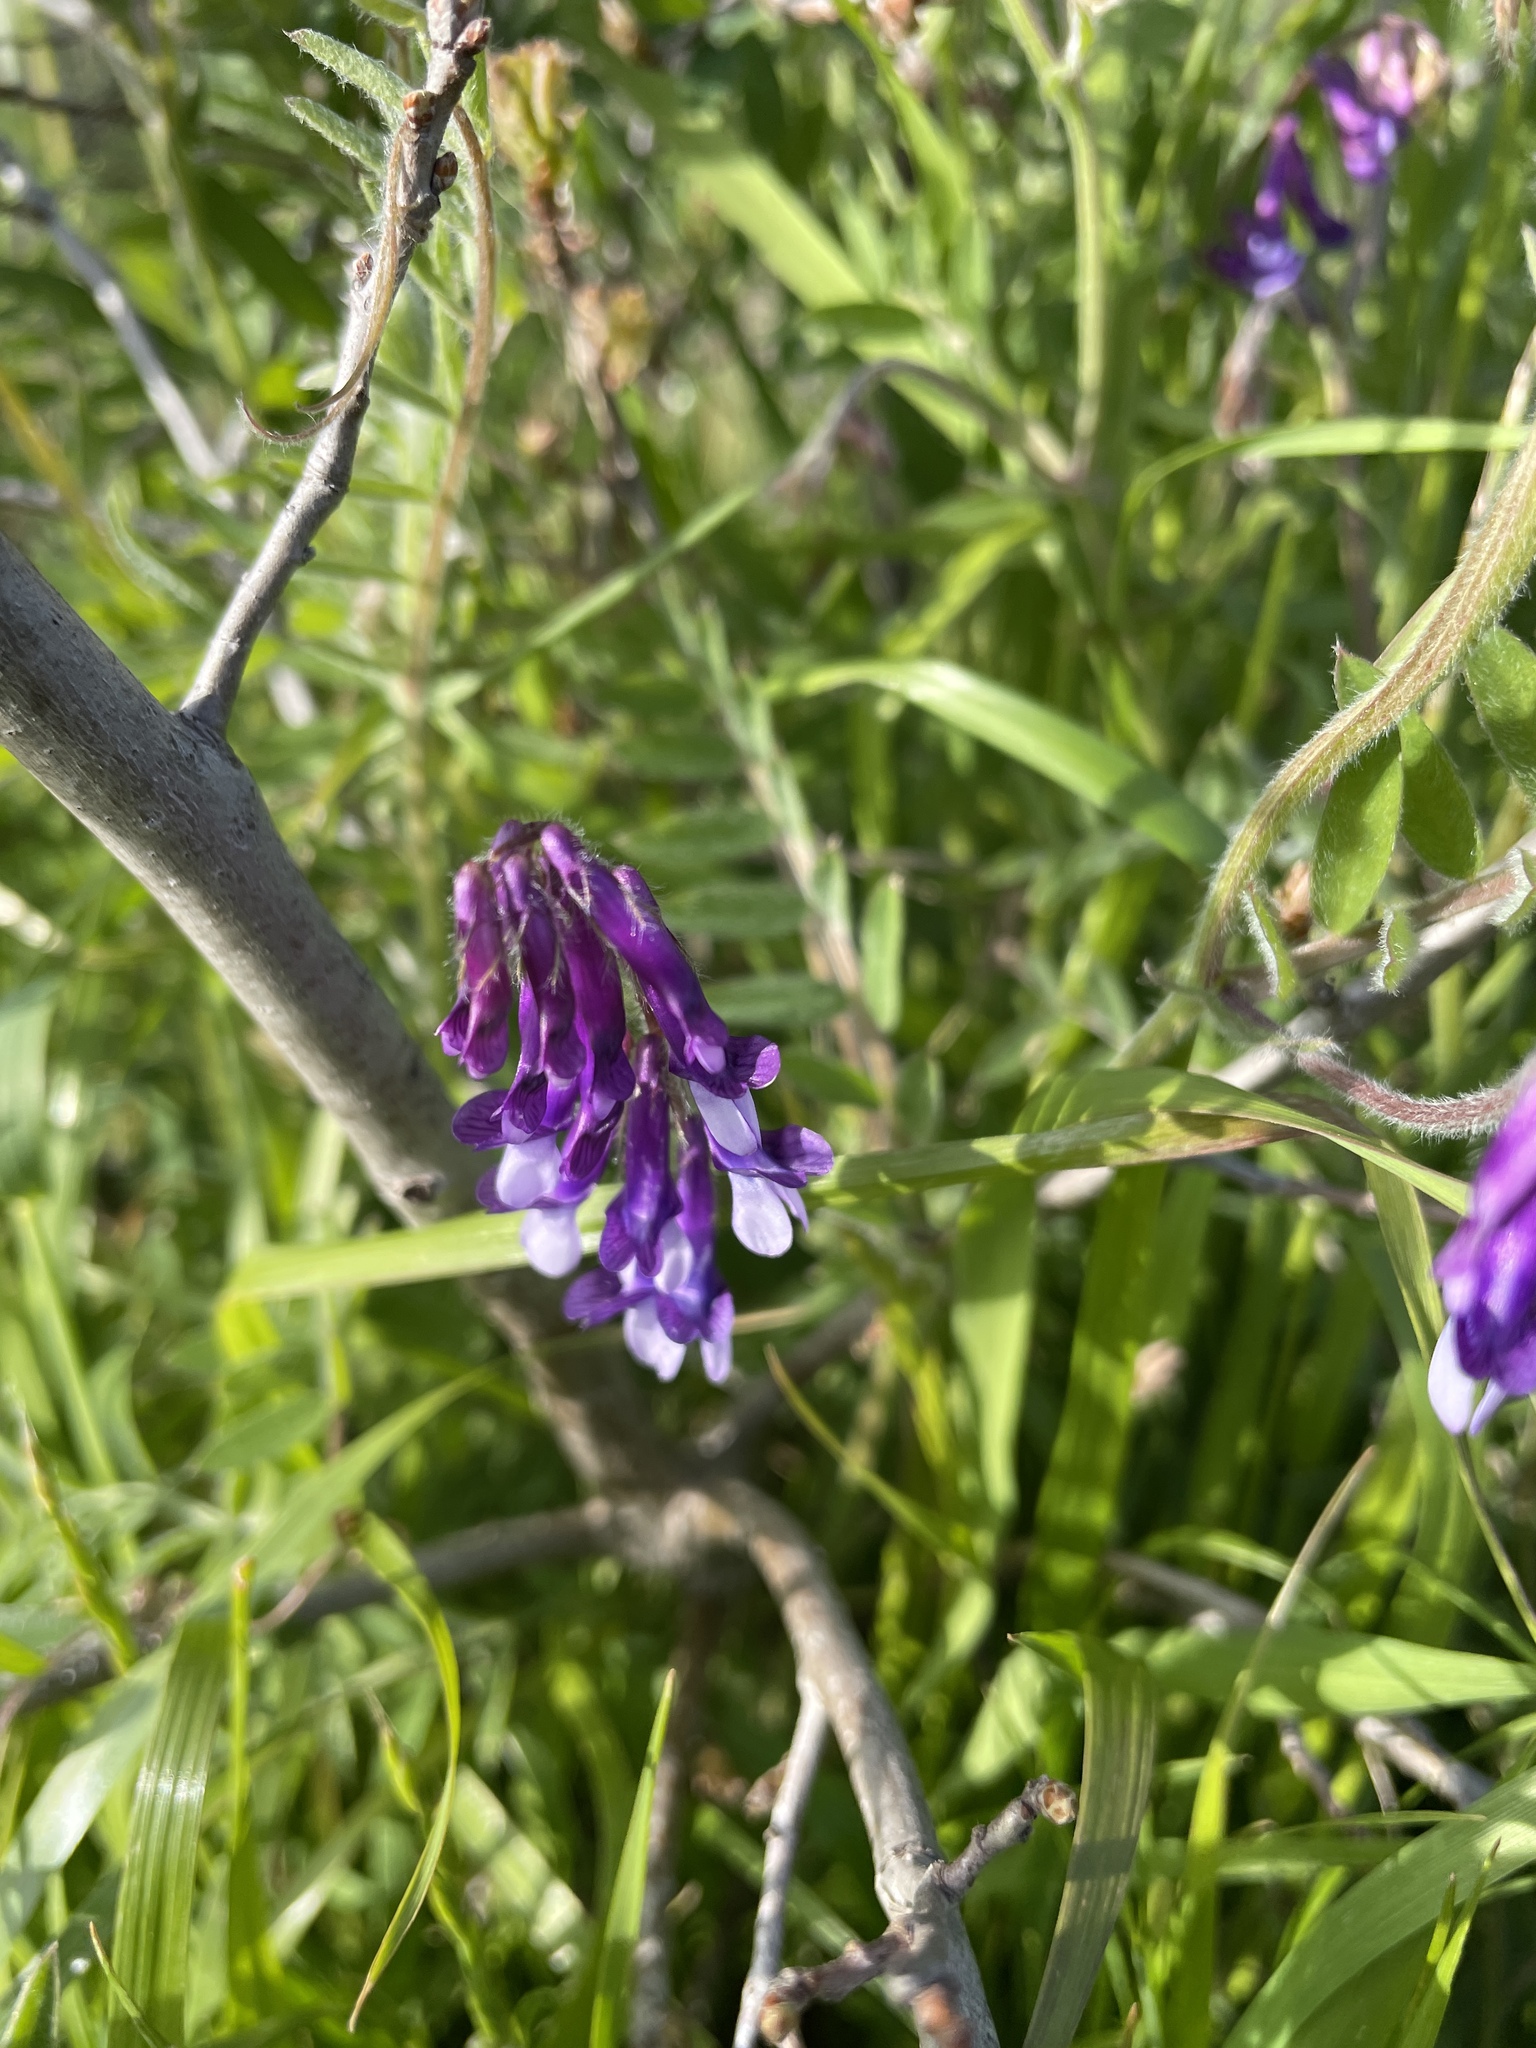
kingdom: Plantae
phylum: Tracheophyta
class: Magnoliopsida
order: Fabales
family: Fabaceae
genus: Vicia
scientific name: Vicia villosa
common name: Fodder vetch
